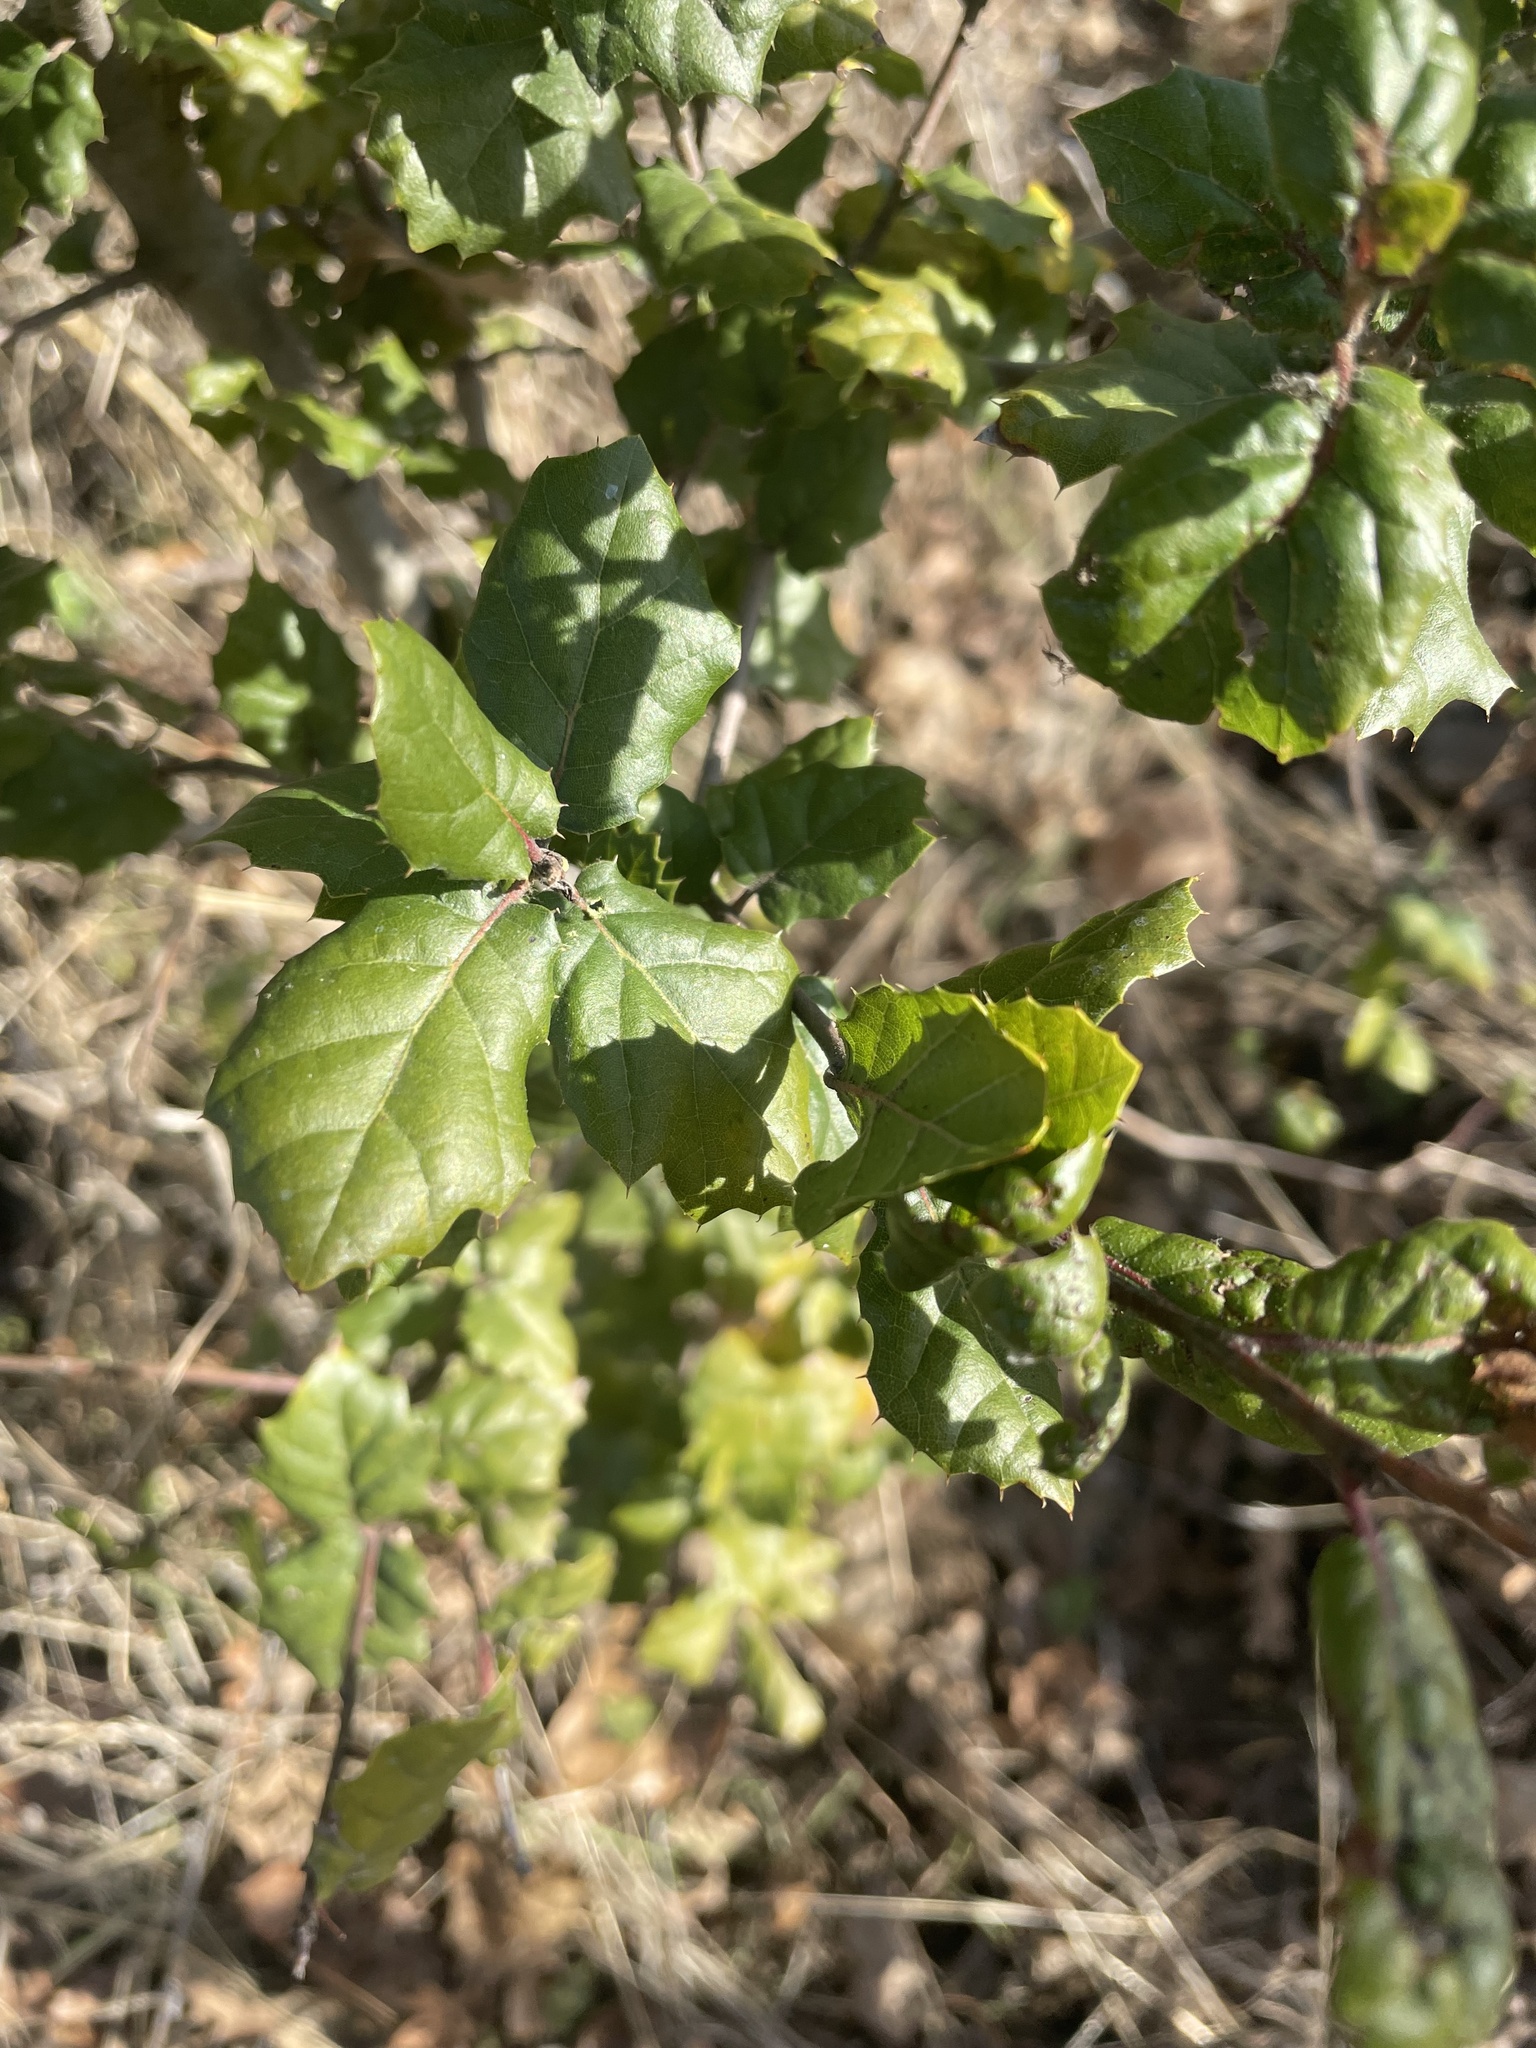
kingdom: Plantae
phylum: Tracheophyta
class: Magnoliopsida
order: Fagales
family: Fagaceae
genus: Quercus
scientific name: Quercus agrifolia
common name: California live oak
